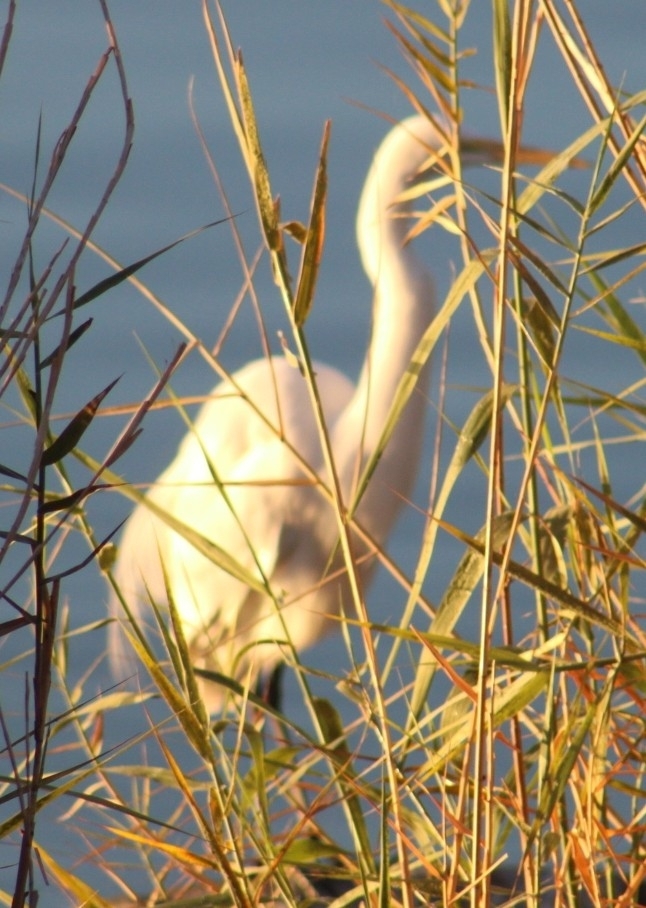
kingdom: Animalia
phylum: Chordata
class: Aves
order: Pelecaniformes
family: Ardeidae
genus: Ardea
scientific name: Ardea alba
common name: Great egret
